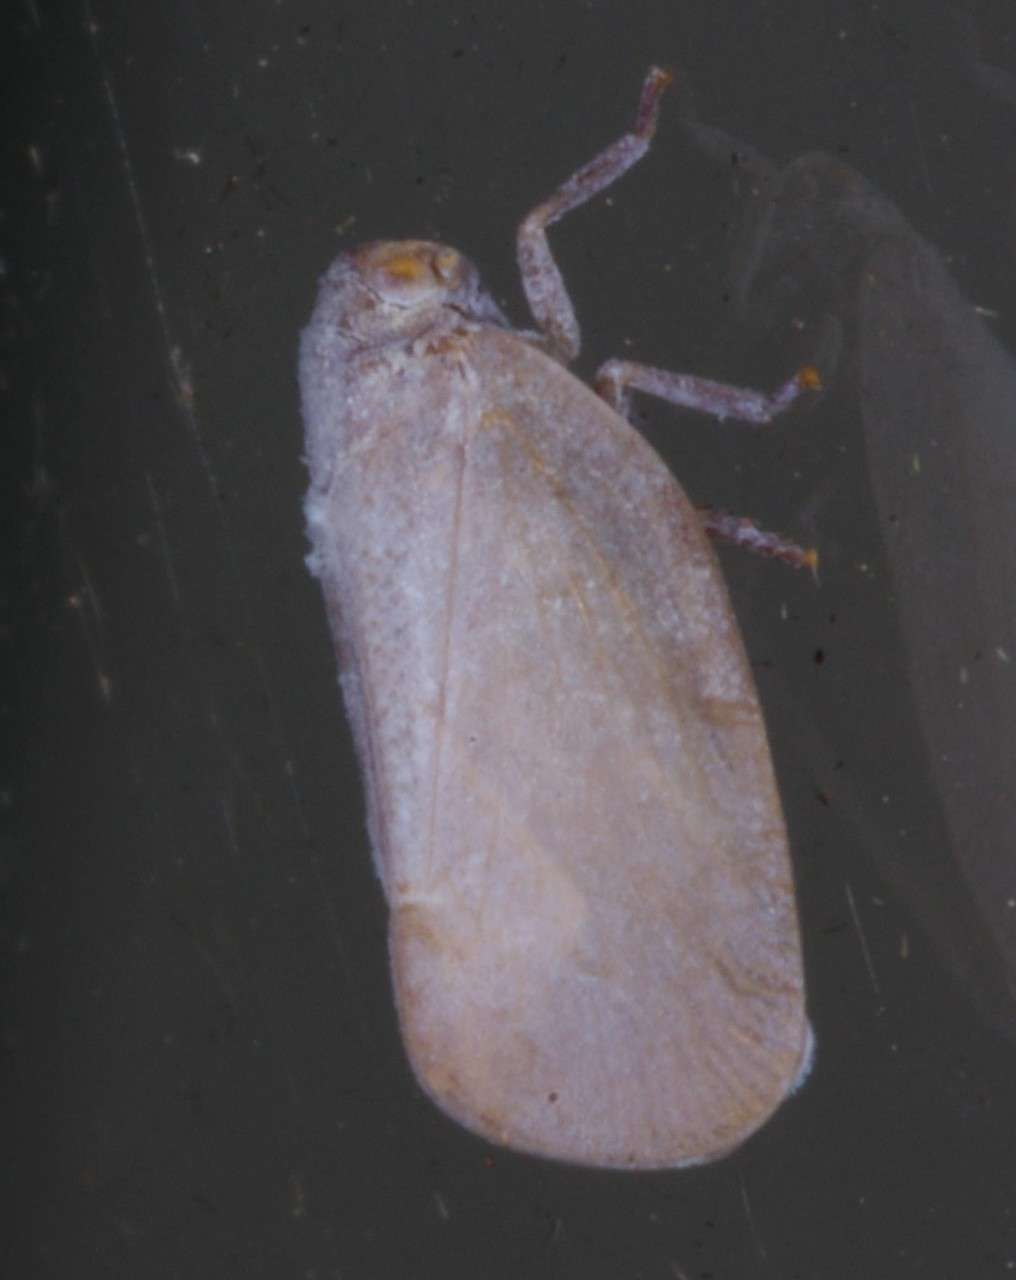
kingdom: Animalia
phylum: Arthropoda
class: Insecta
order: Hemiptera
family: Flatidae
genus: Anzora
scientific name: Anzora unicolor
